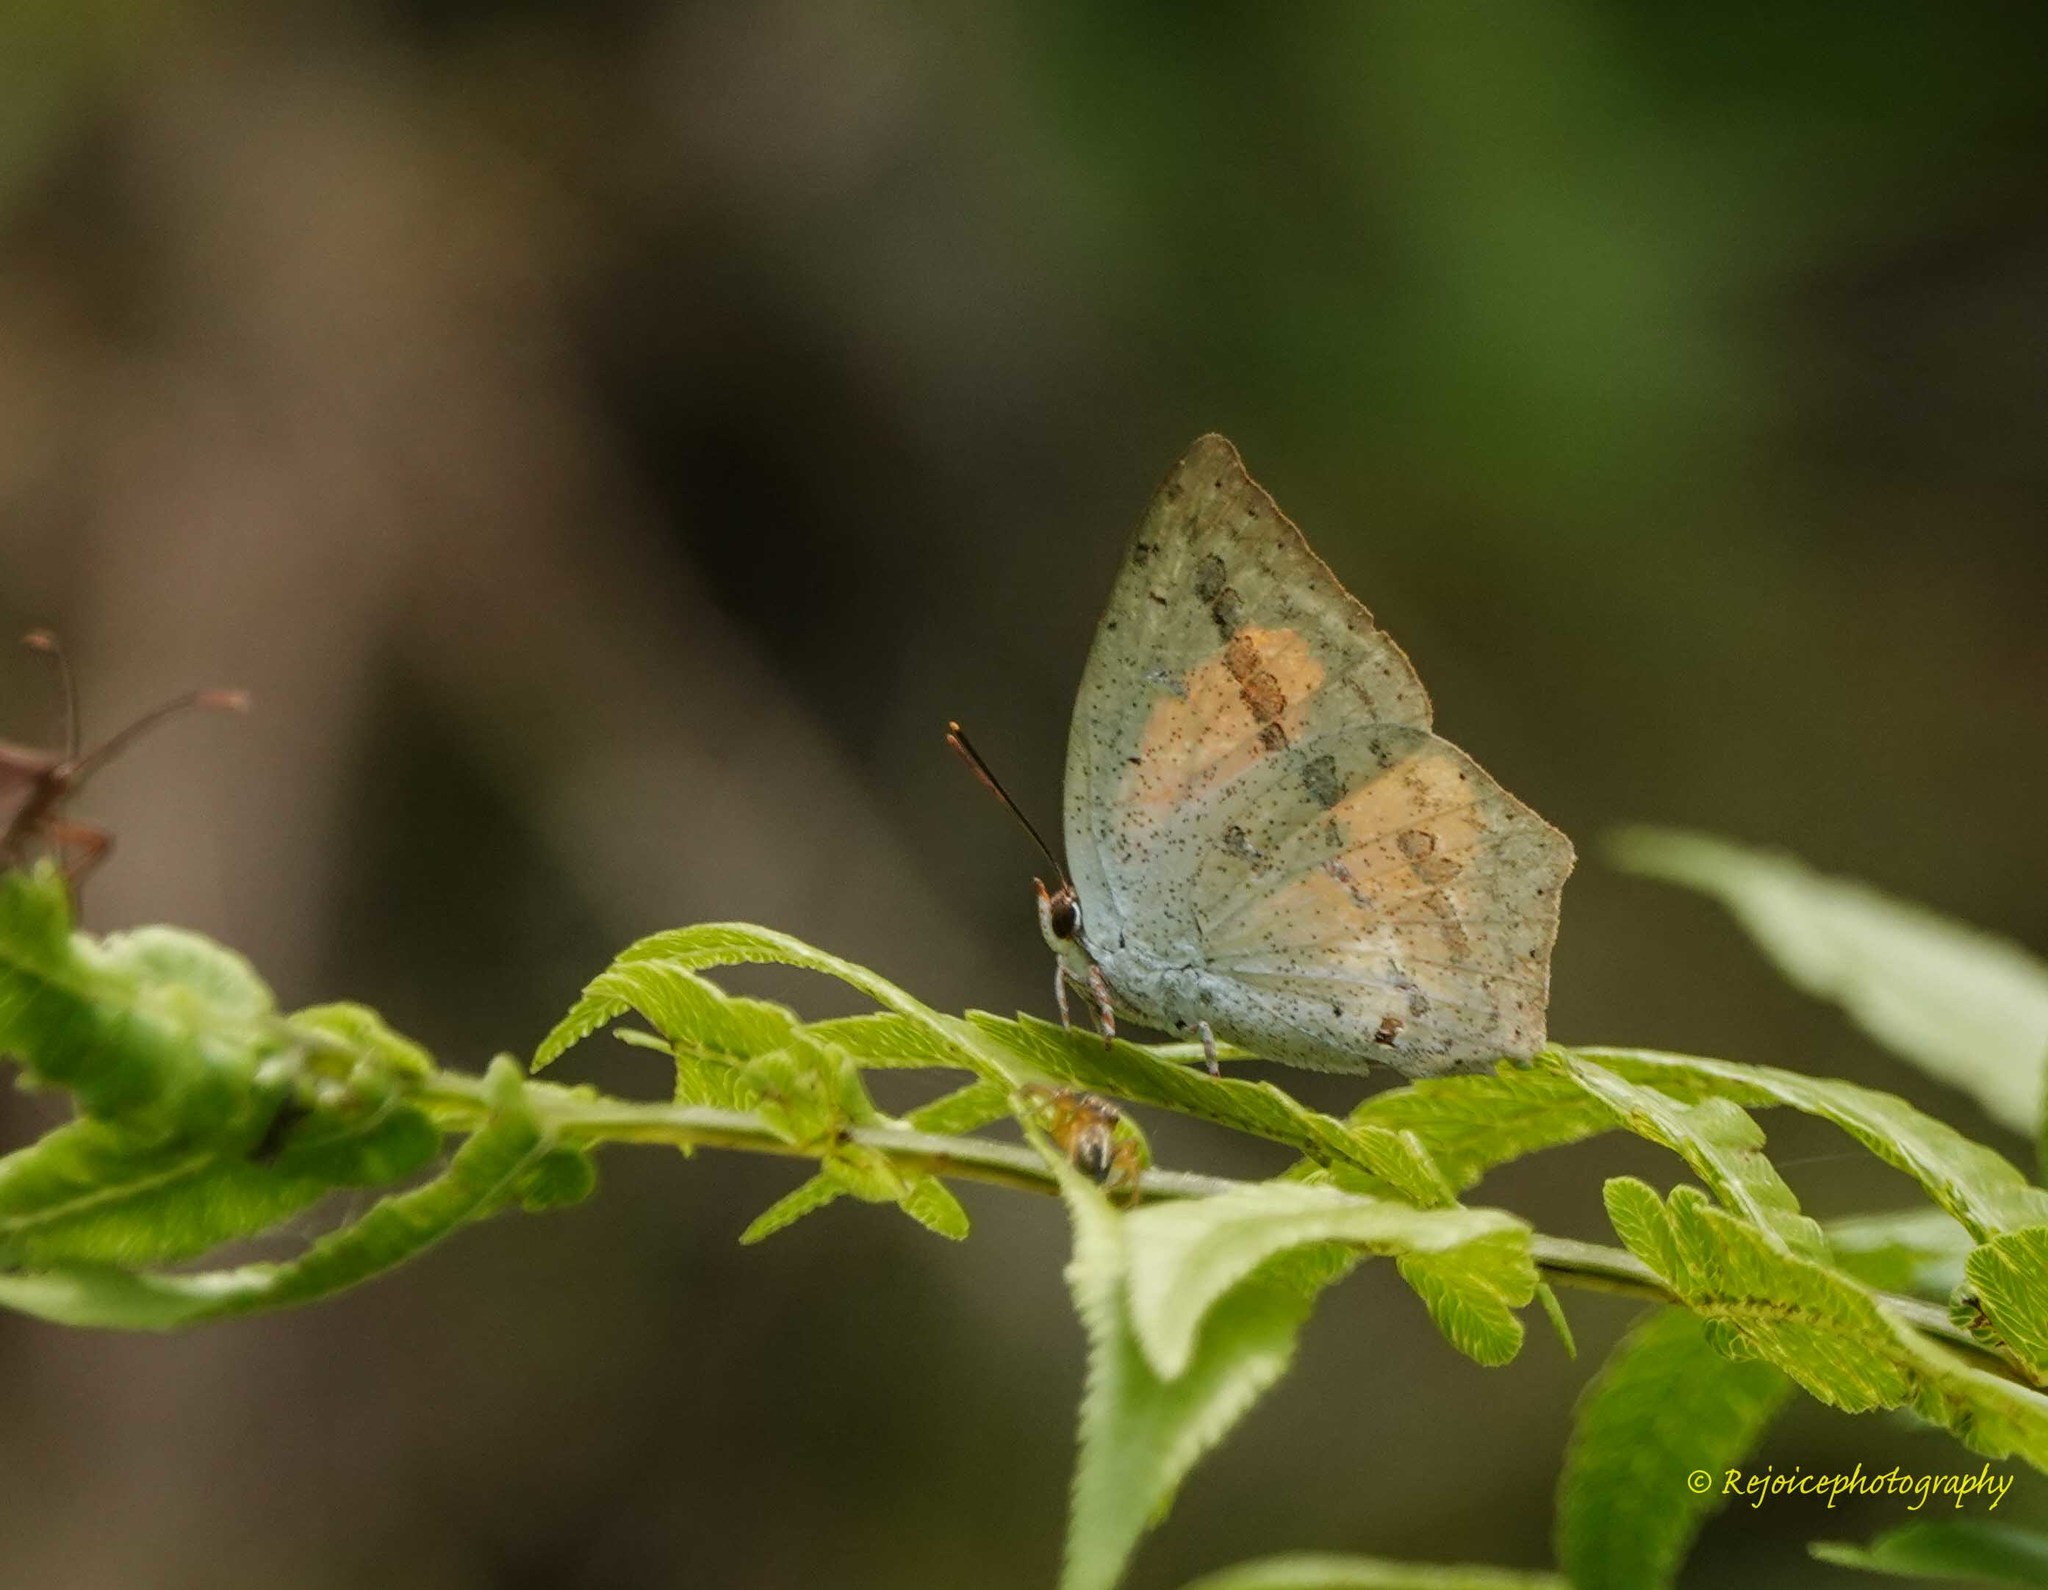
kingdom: Animalia
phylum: Arthropoda
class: Insecta
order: Lepidoptera
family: Lycaenidae
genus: Curetis
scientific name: Curetis acuta
